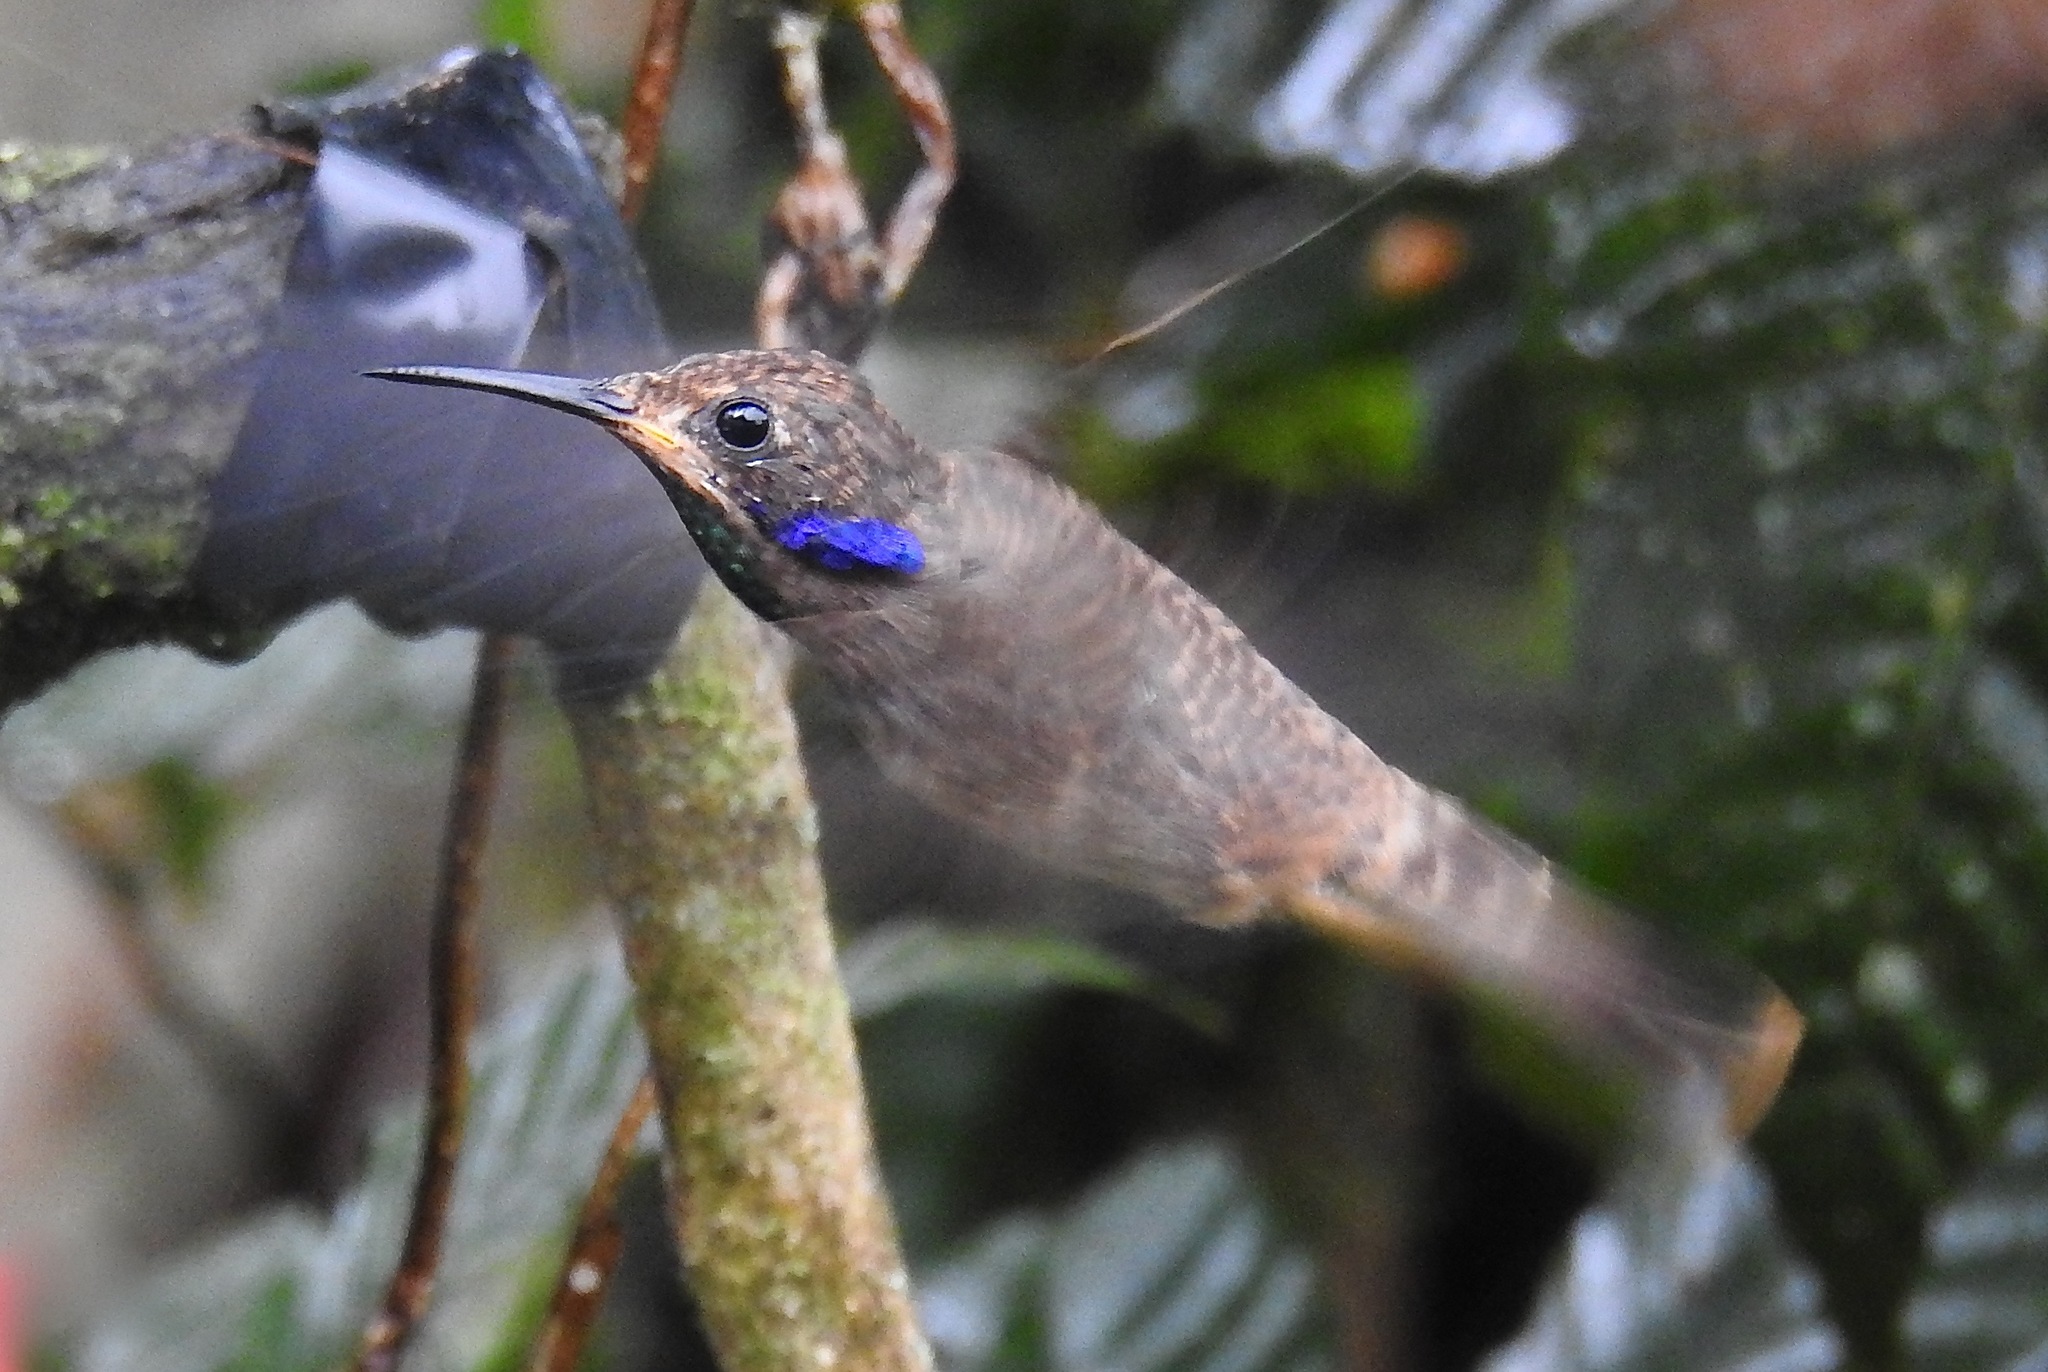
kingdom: Animalia
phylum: Chordata
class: Aves
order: Apodiformes
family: Trochilidae
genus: Colibri
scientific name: Colibri delphinae
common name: Brown violetear
